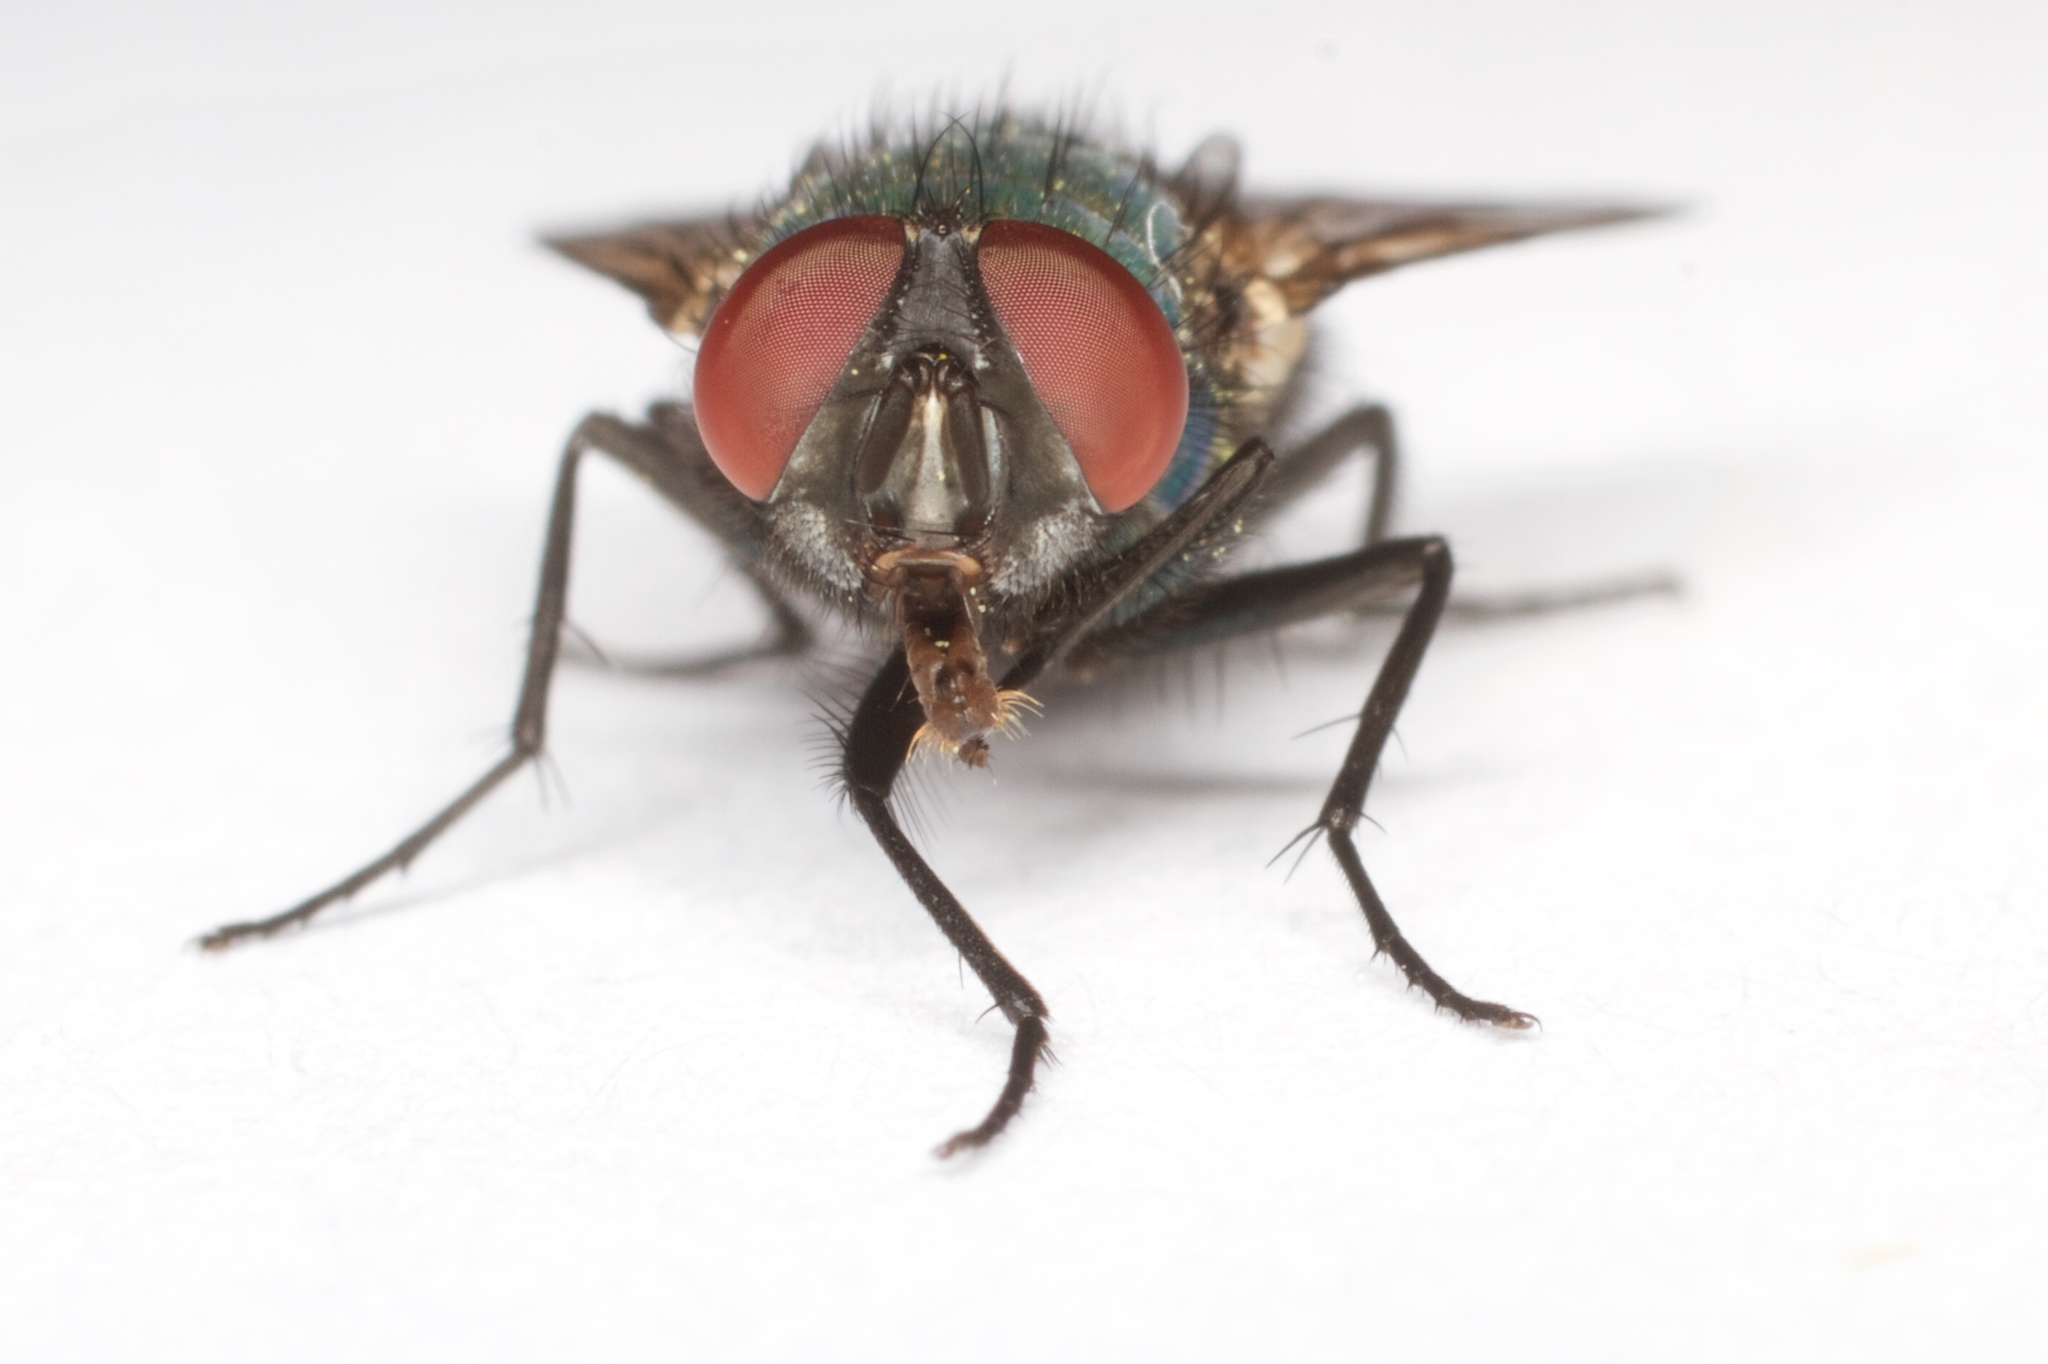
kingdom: Animalia
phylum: Arthropoda
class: Insecta
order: Diptera
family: Calliphoridae
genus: Lucilia
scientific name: Lucilia sericata
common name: Blow fly
